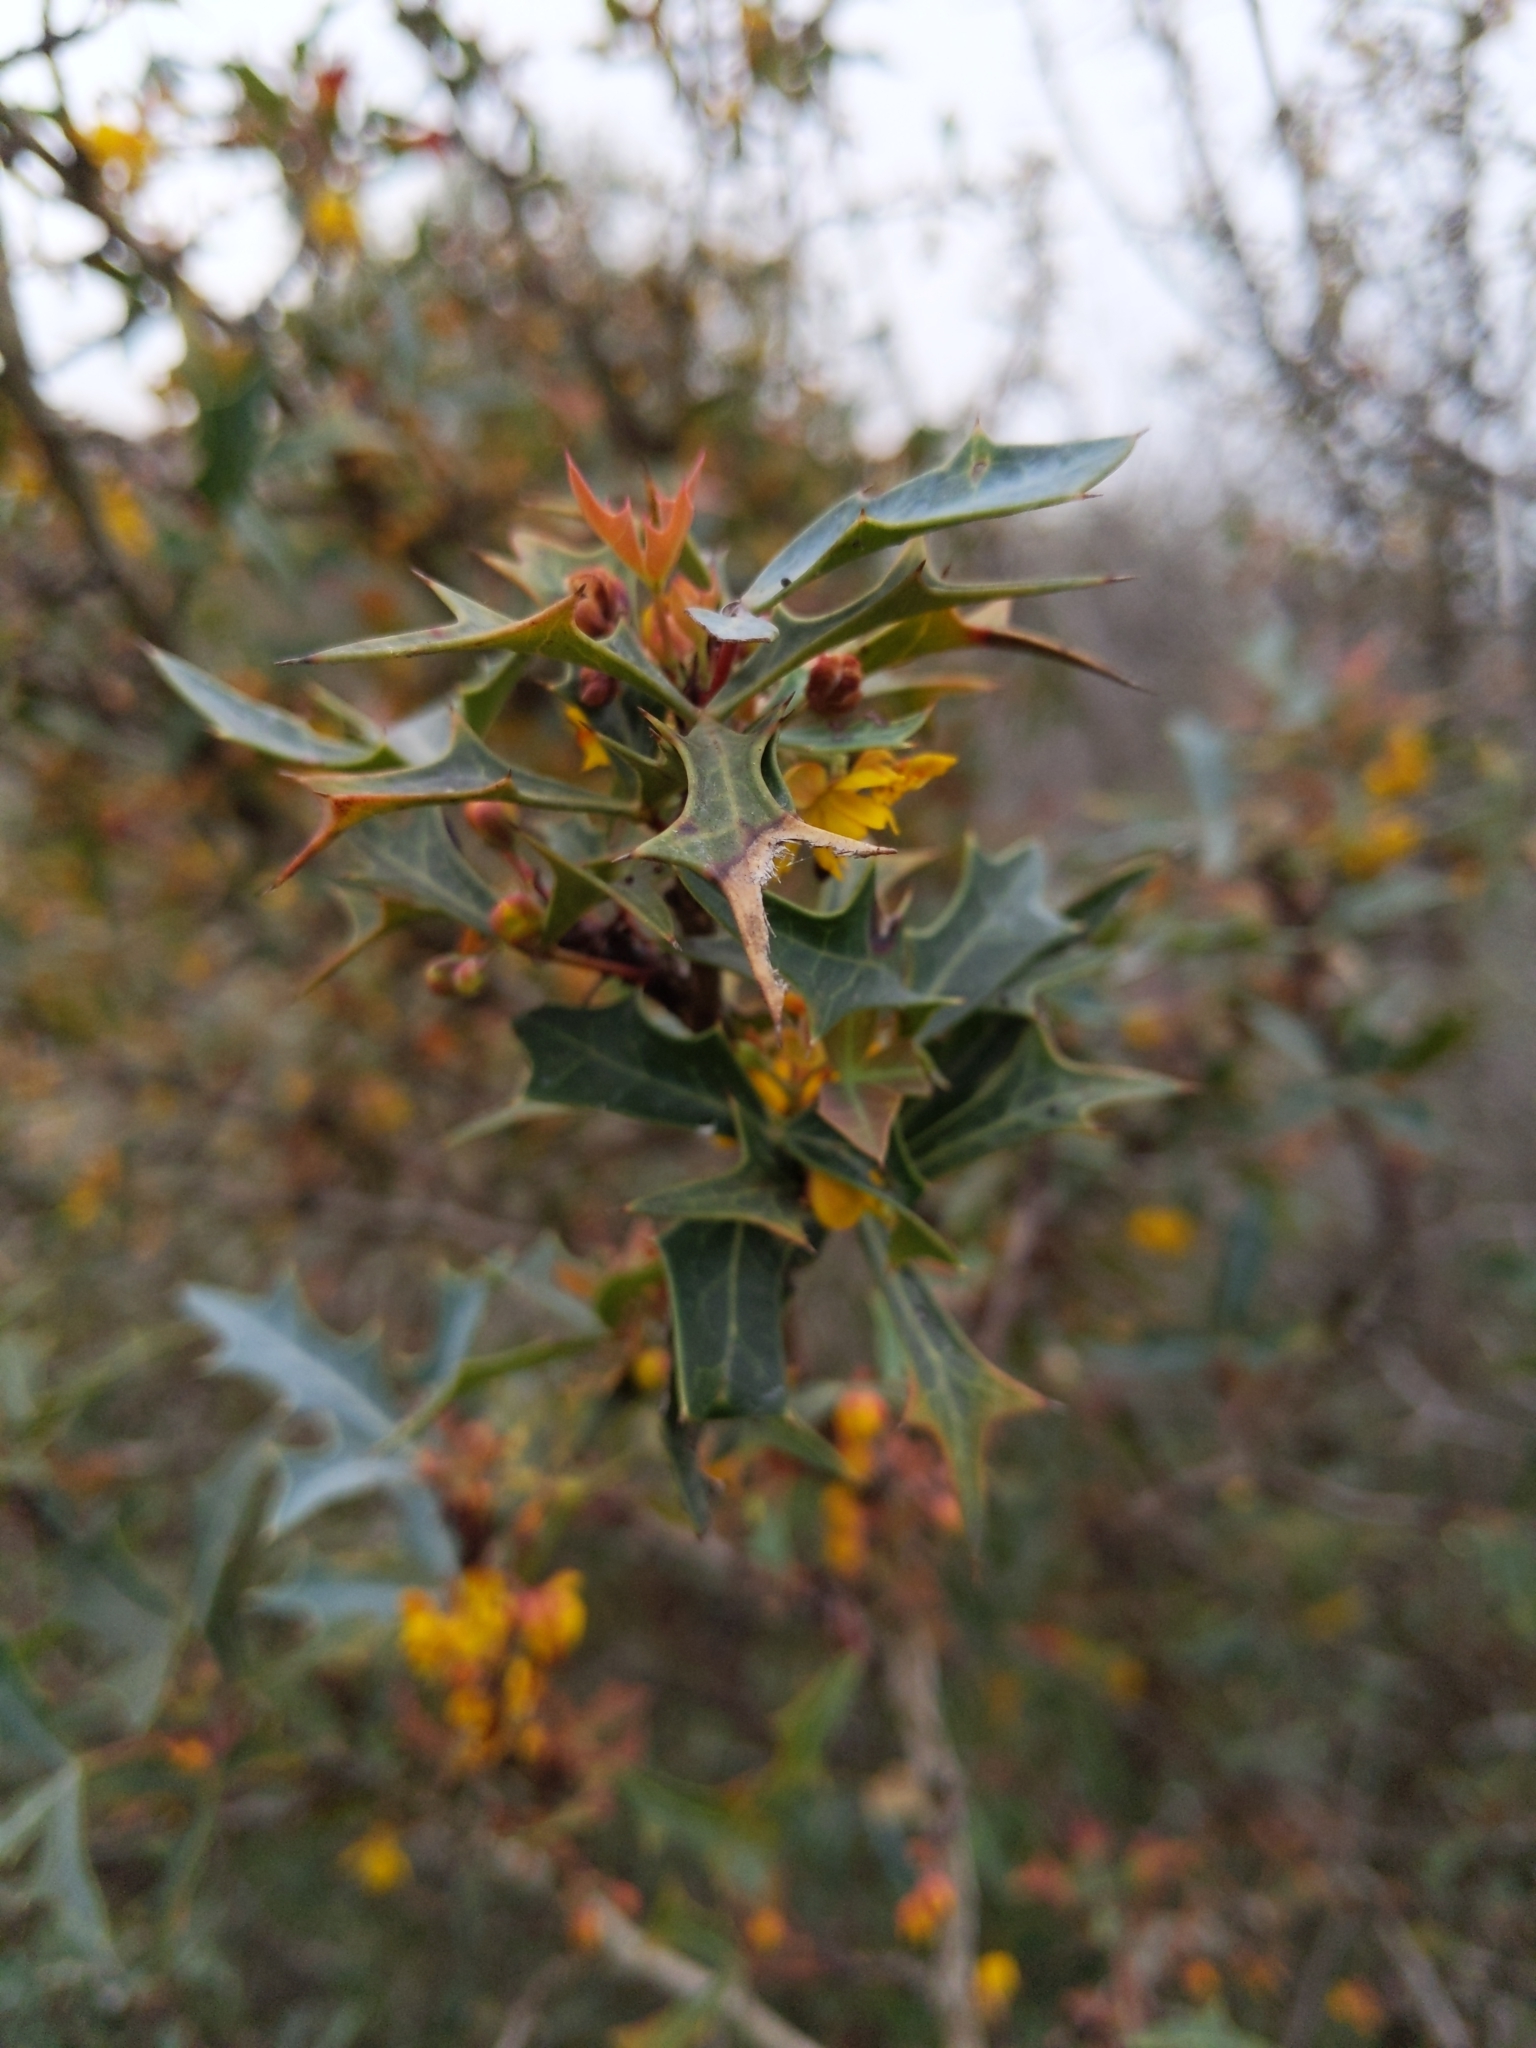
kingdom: Plantae
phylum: Tracheophyta
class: Magnoliopsida
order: Ranunculales
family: Berberidaceae
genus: Alloberberis
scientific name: Alloberberis trifoliolata
